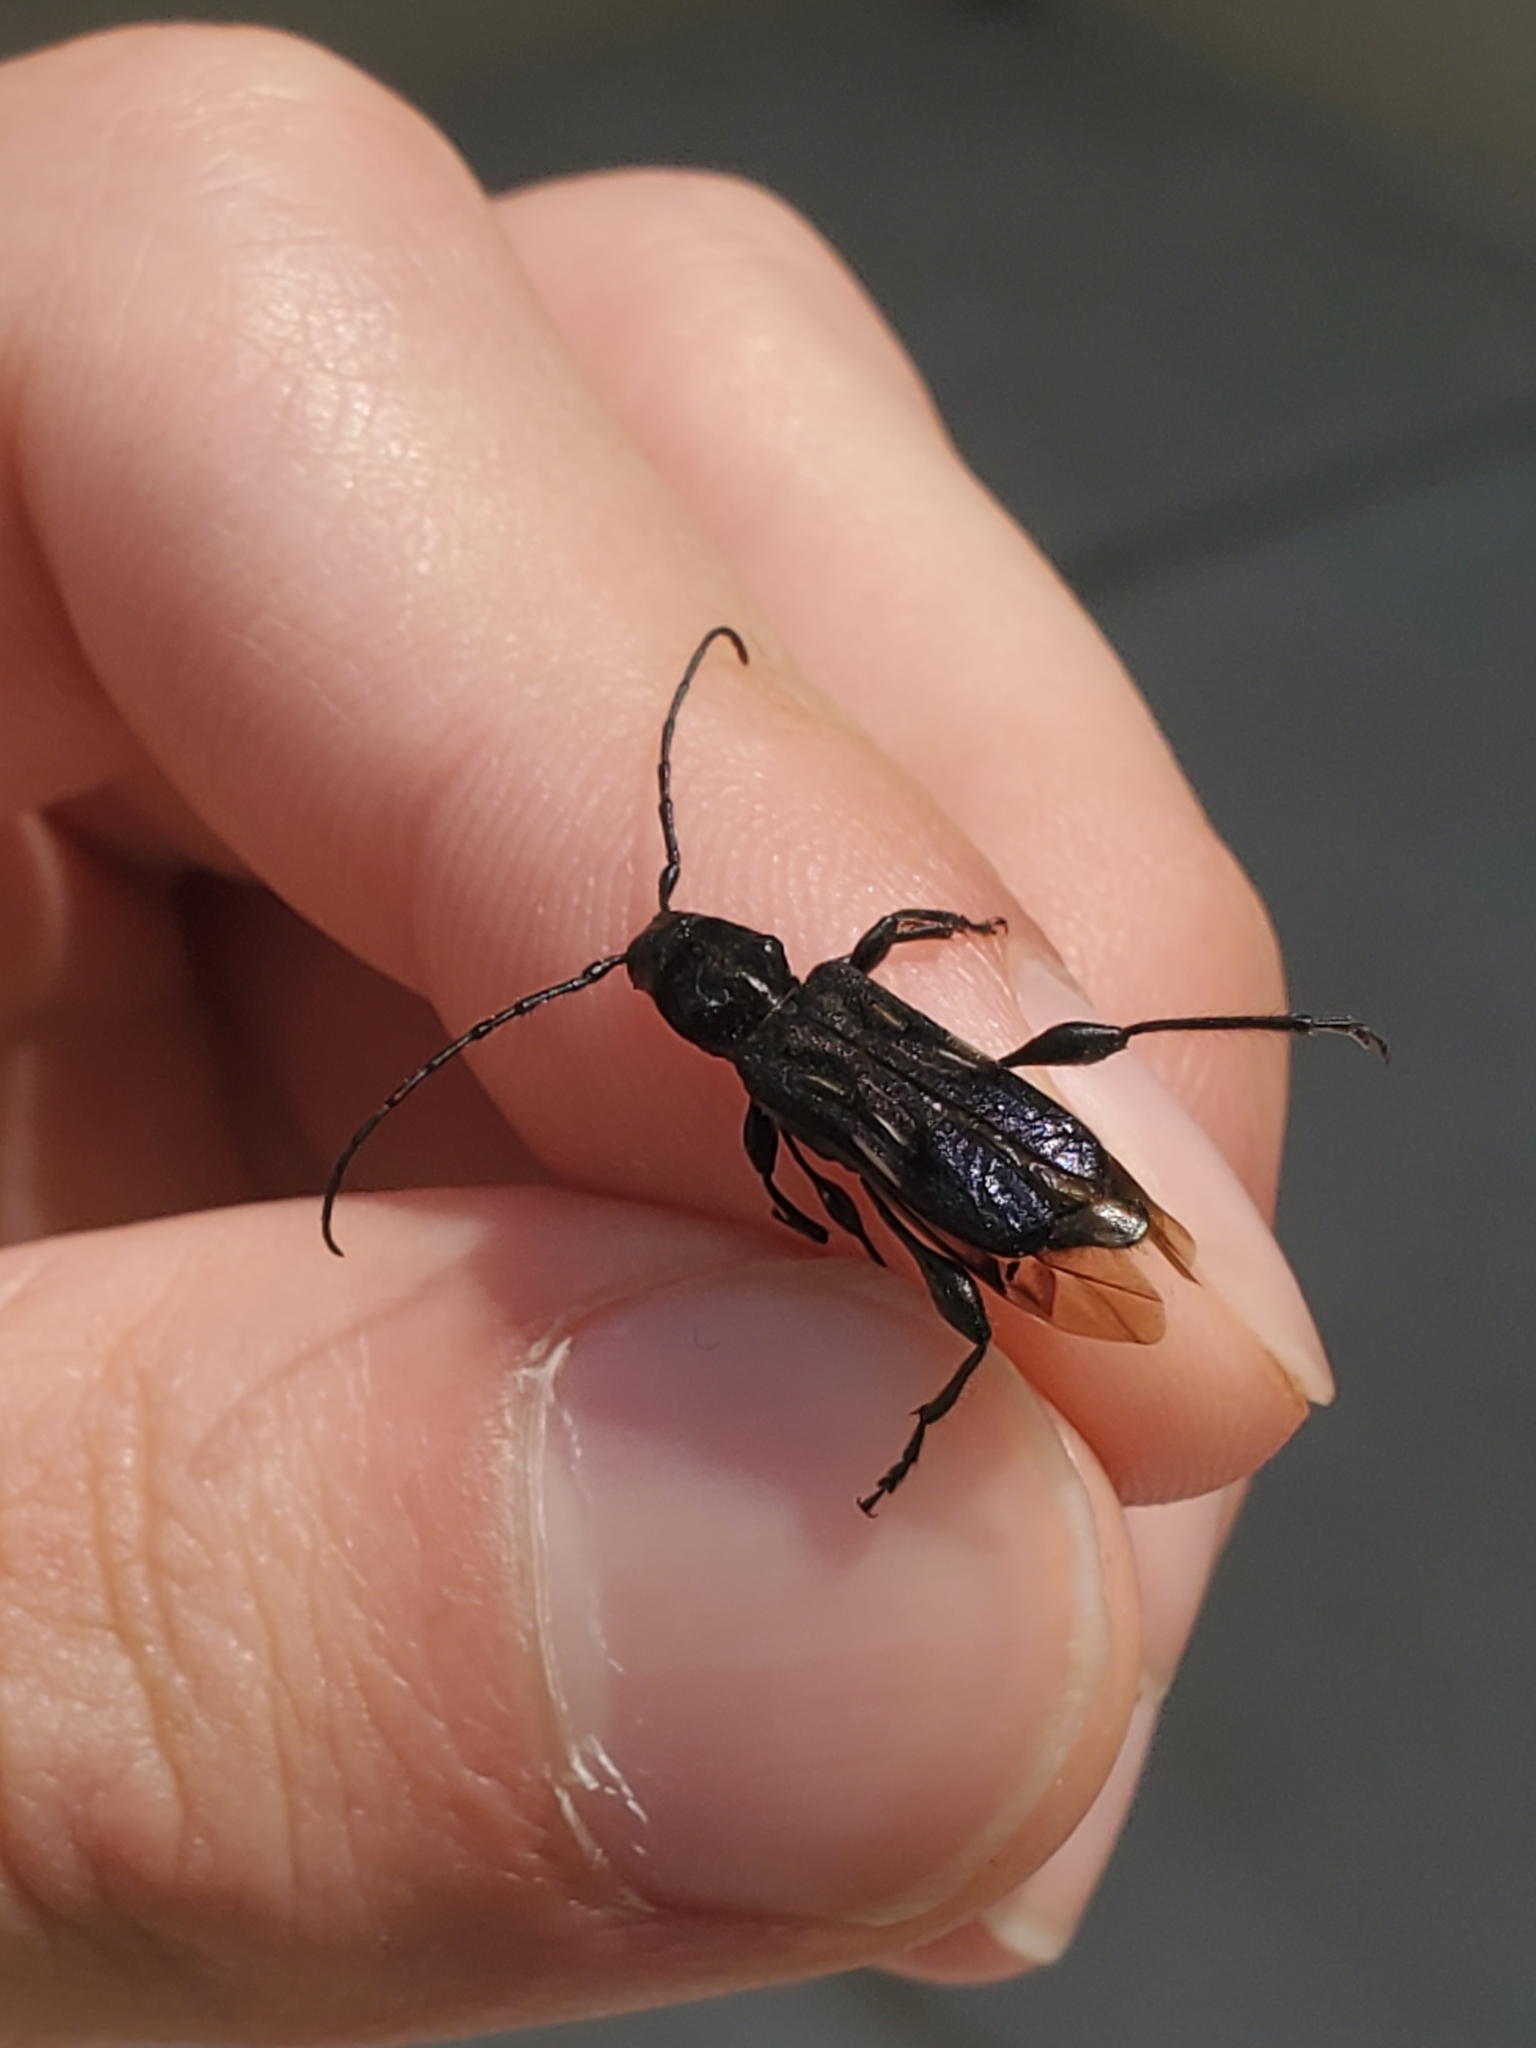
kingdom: Animalia
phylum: Arthropoda
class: Insecta
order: Coleoptera
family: Cerambycidae
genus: Physocnemum
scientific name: Physocnemum brevilineum
